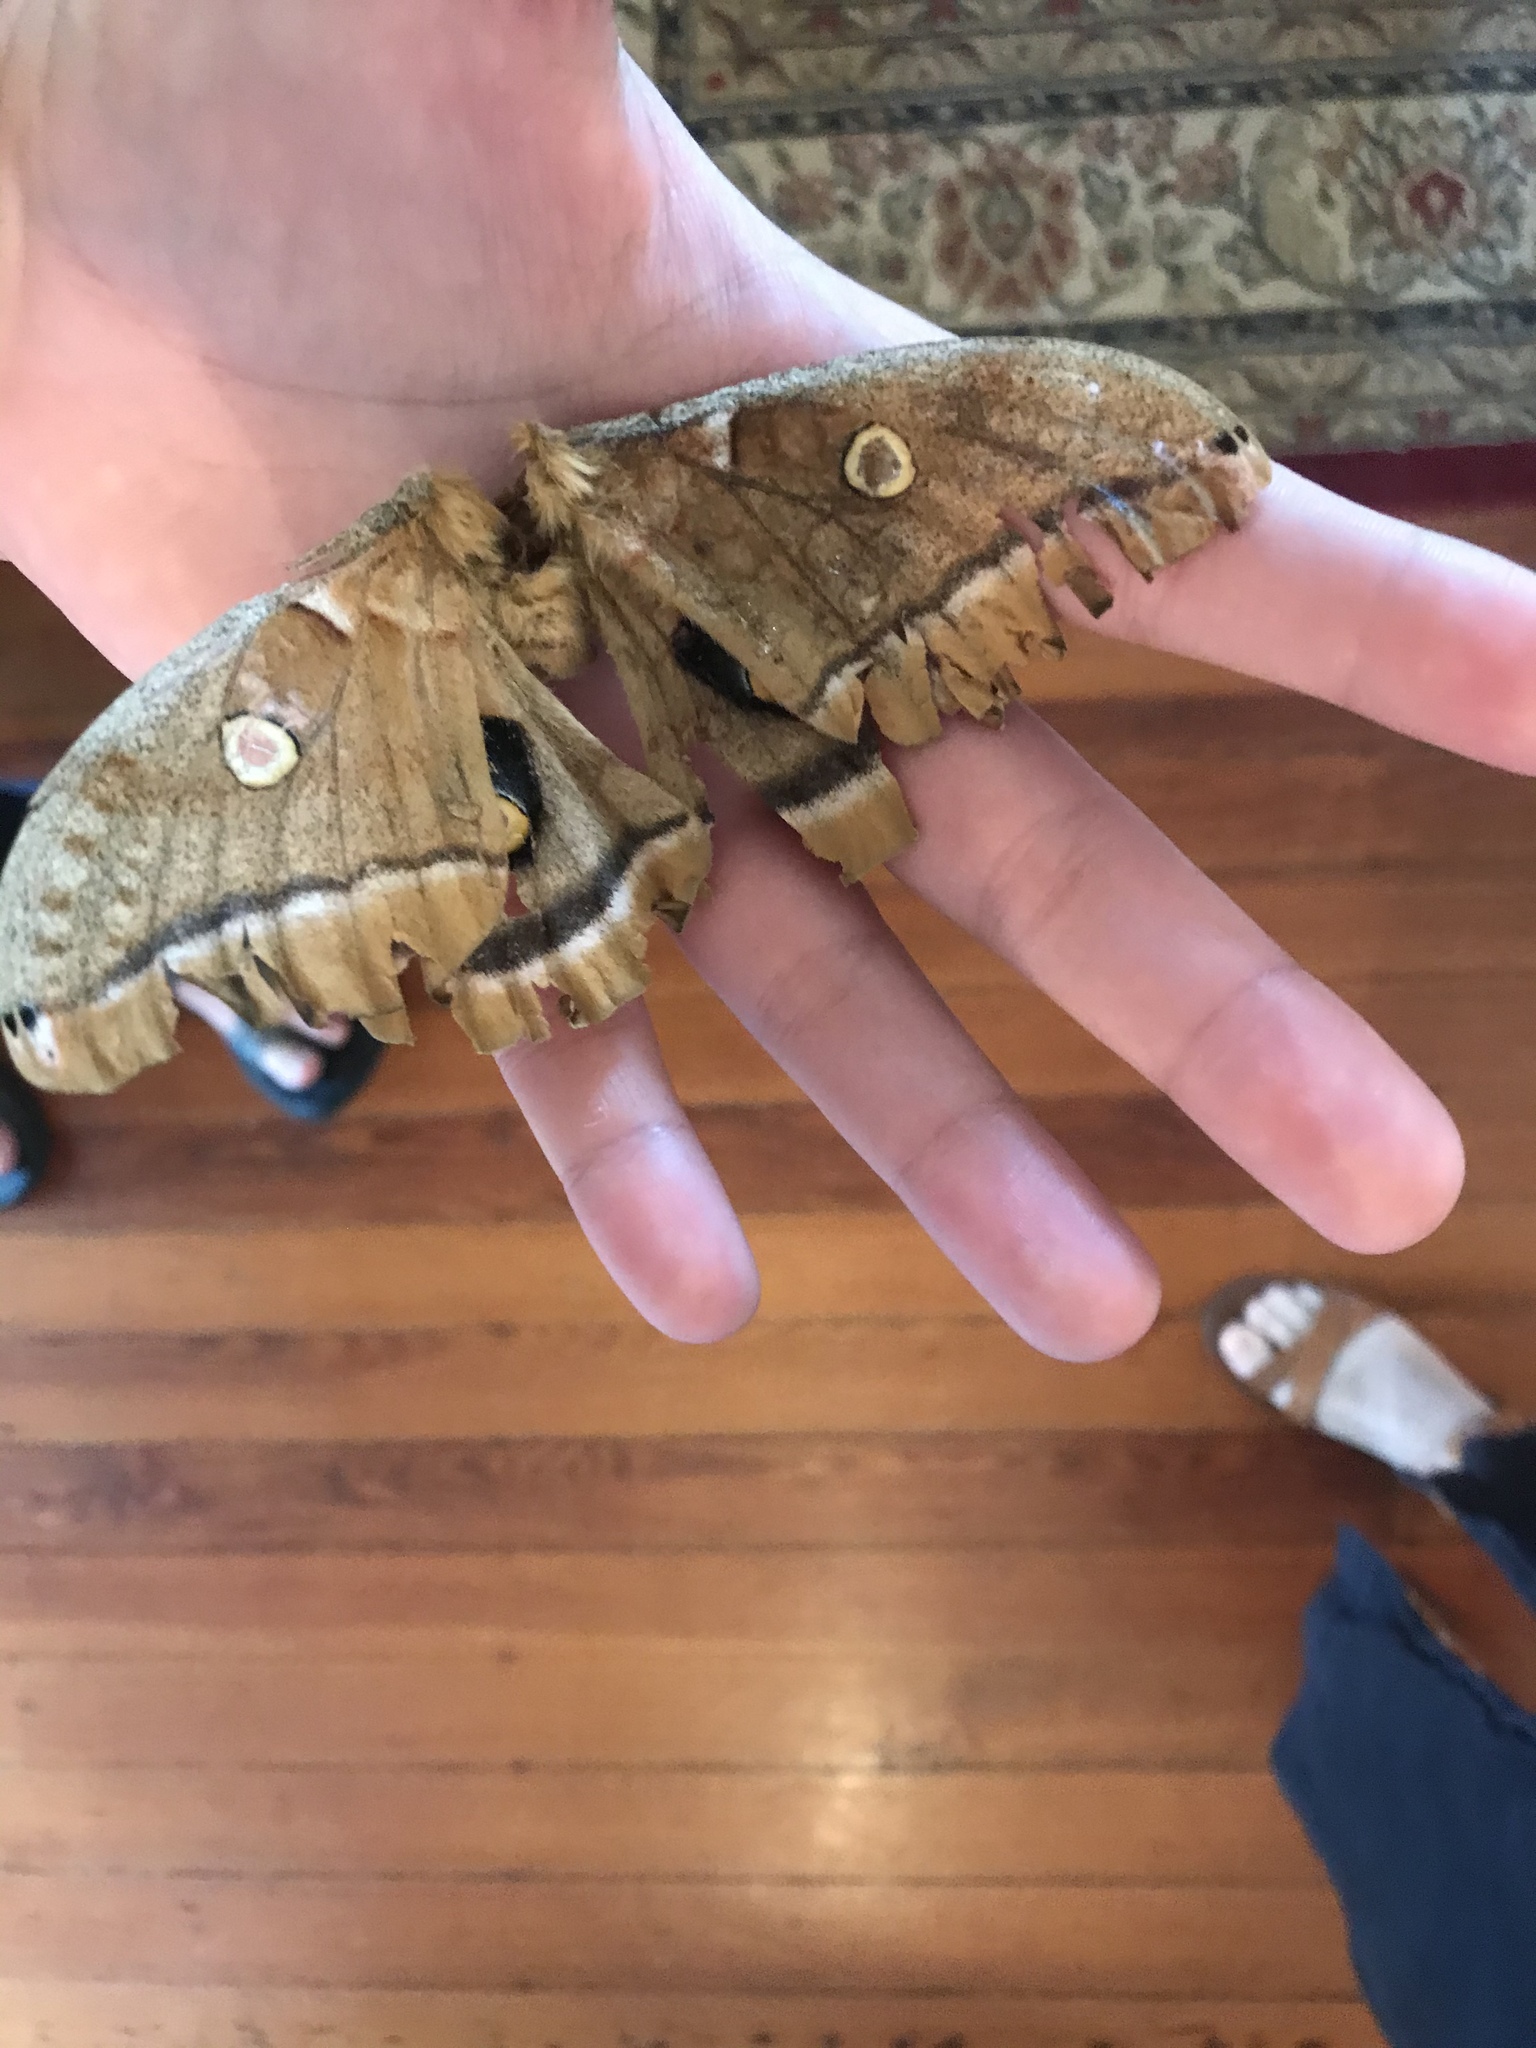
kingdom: Animalia
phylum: Arthropoda
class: Insecta
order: Lepidoptera
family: Saturniidae
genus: Antheraea
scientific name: Antheraea polyphemus
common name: Polyphemus moth
